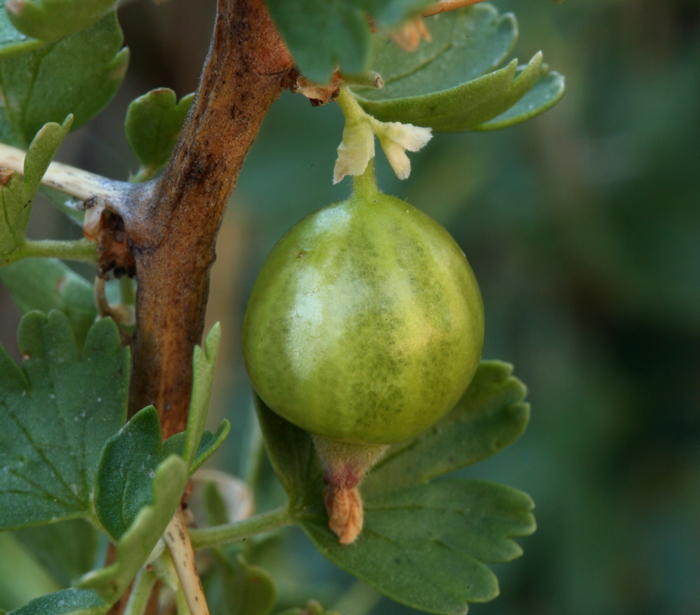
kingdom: Plantae
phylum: Tracheophyta
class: Magnoliopsida
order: Saxifragales
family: Grossulariaceae
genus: Ribes
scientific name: Ribes velutinum
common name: Desert gooseberry
